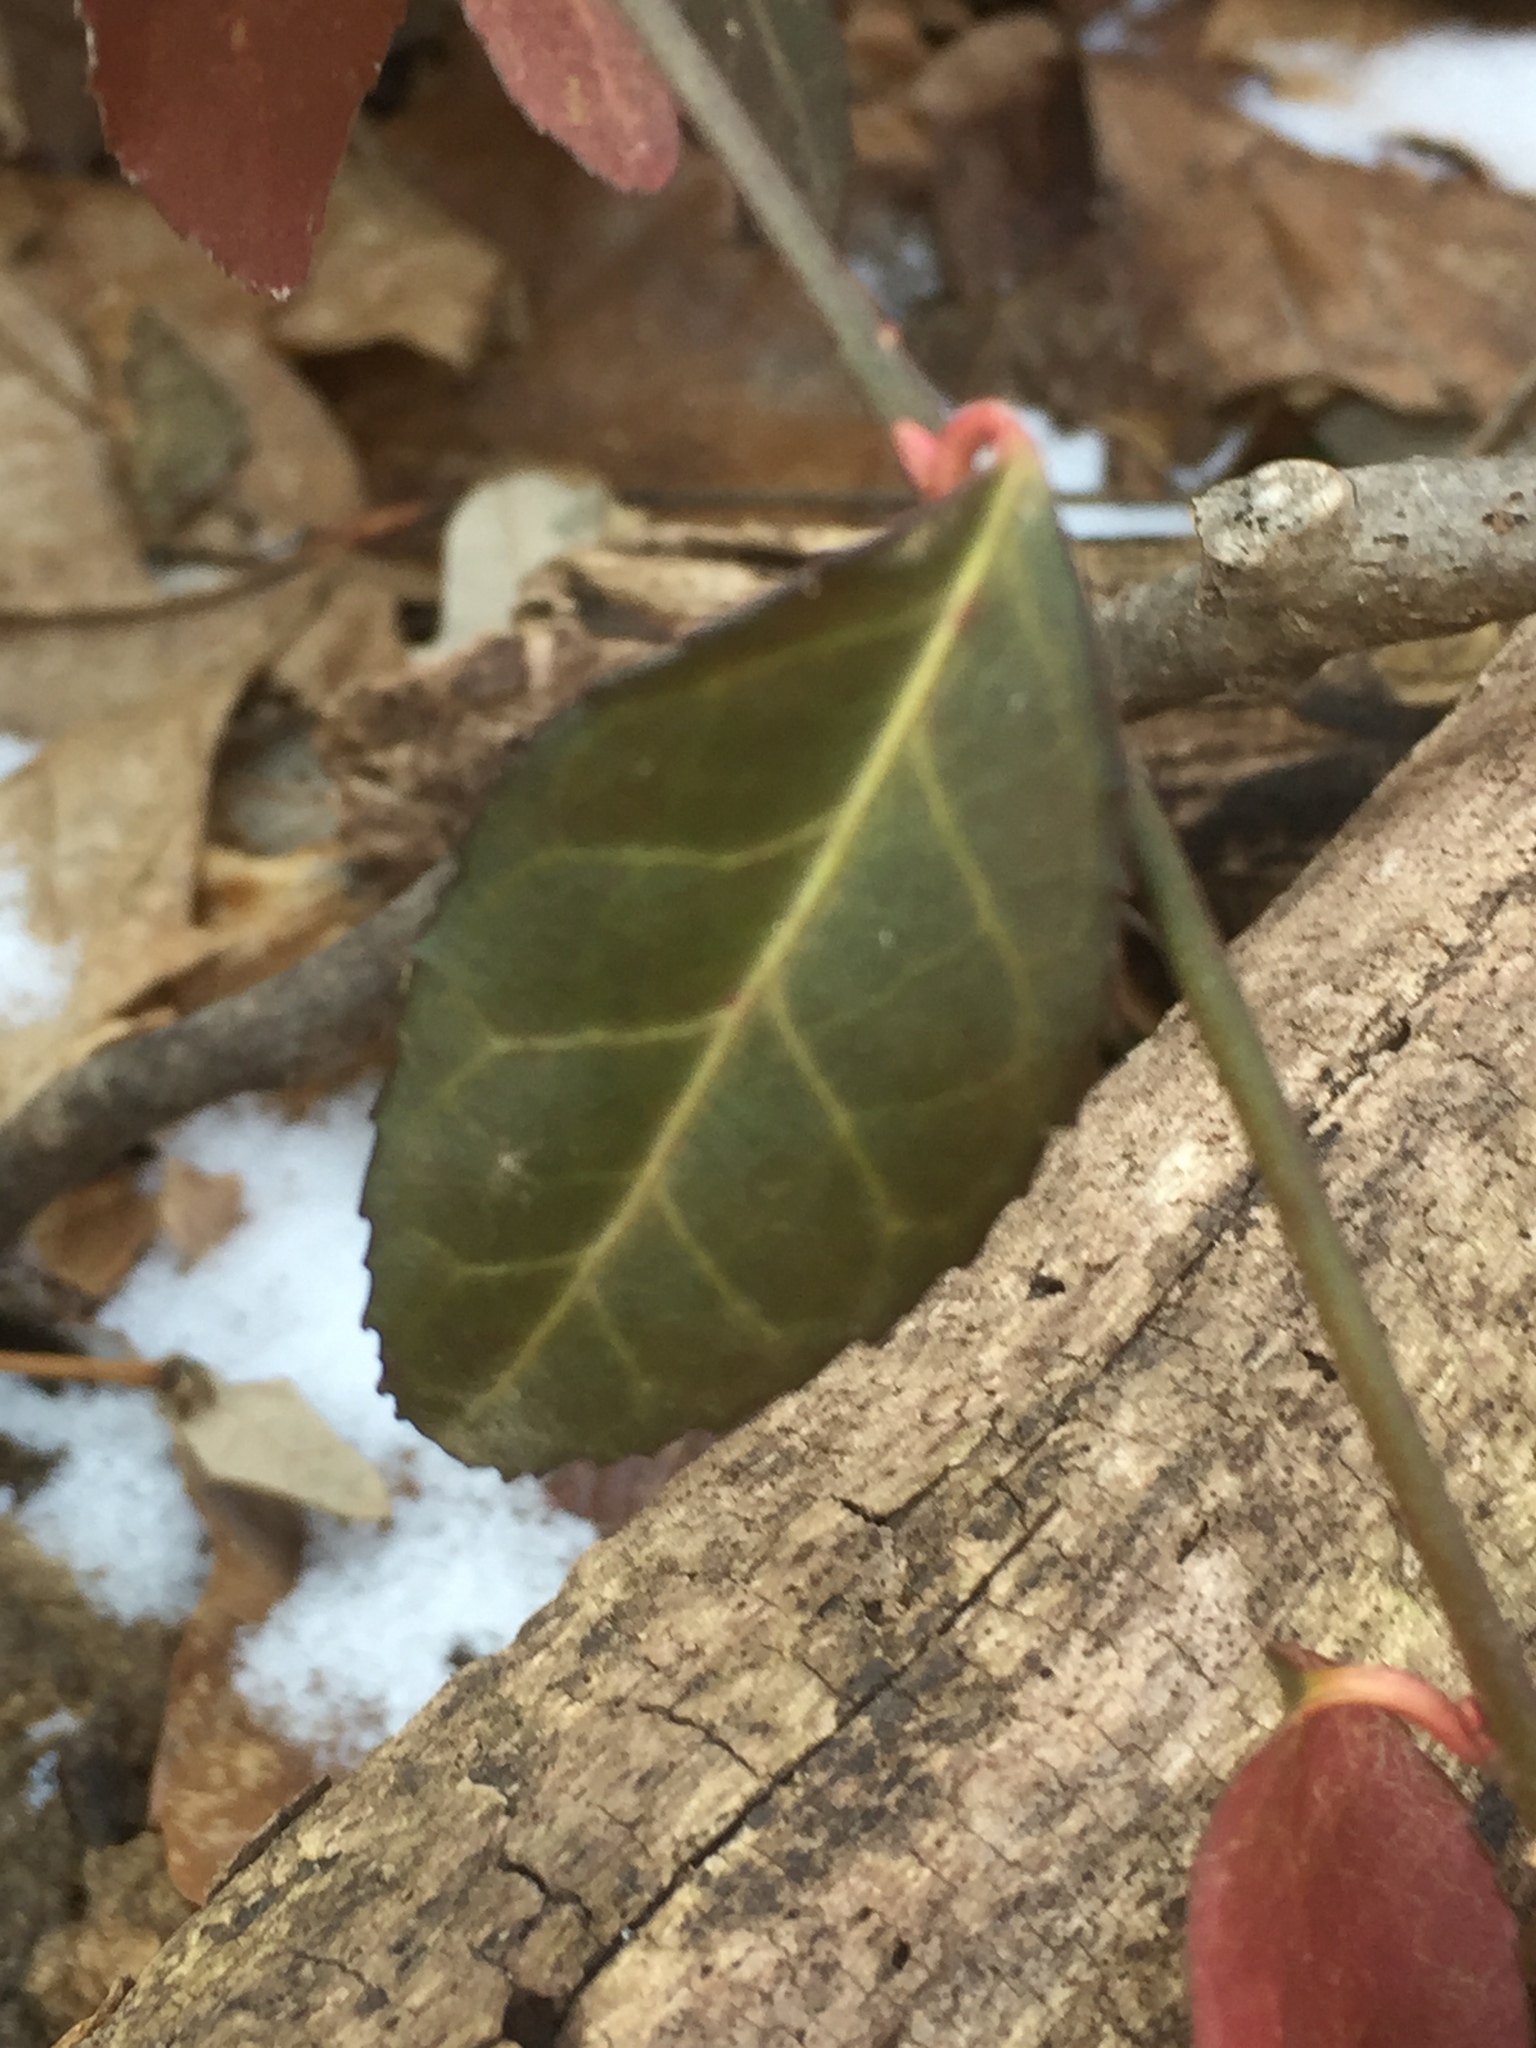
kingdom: Plantae
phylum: Tracheophyta
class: Magnoliopsida
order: Celastrales
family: Celastraceae
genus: Euonymus
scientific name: Euonymus fortunei
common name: Climbing euonymus
